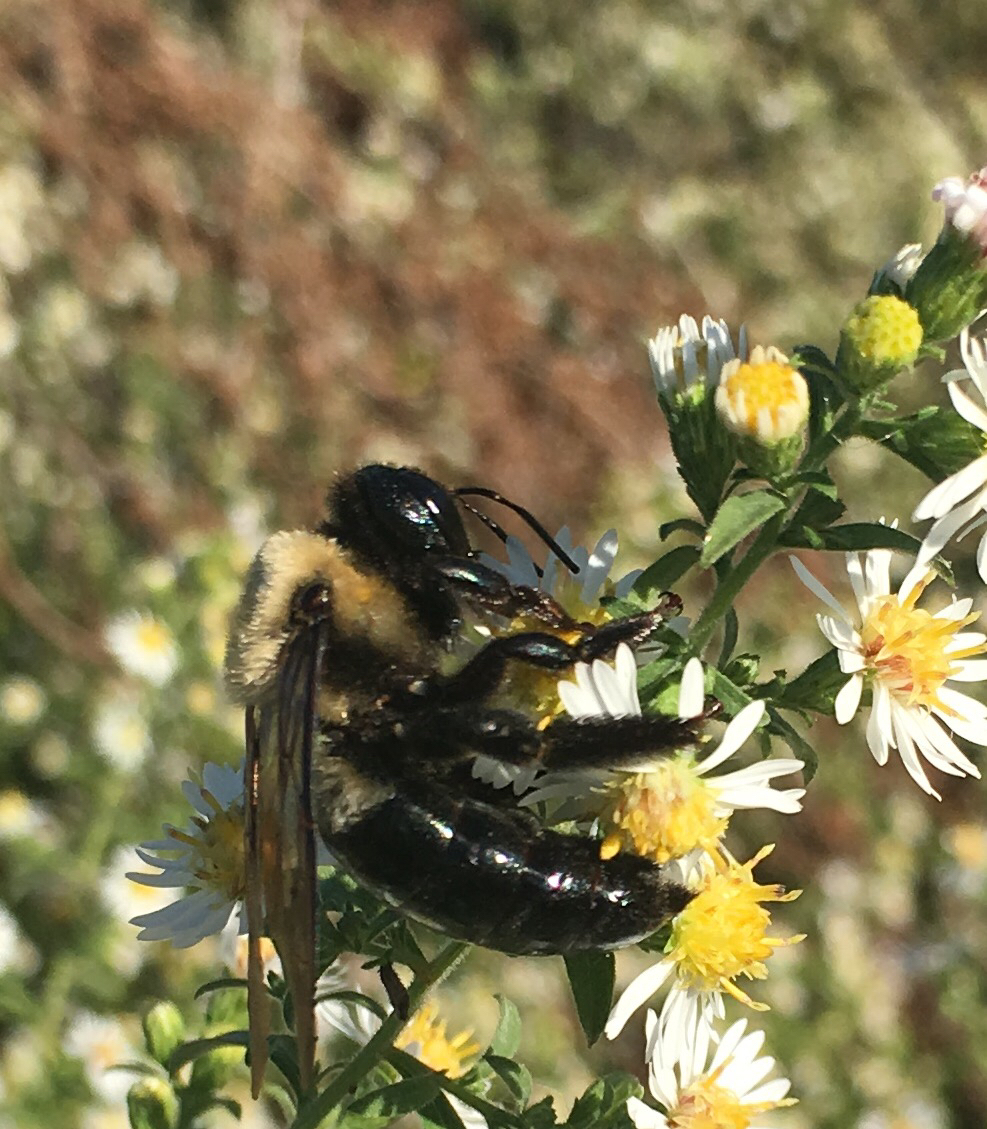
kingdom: Animalia
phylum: Arthropoda
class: Insecta
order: Hymenoptera
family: Apidae
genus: Xylocopa
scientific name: Xylocopa virginica
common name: Carpenter bee
